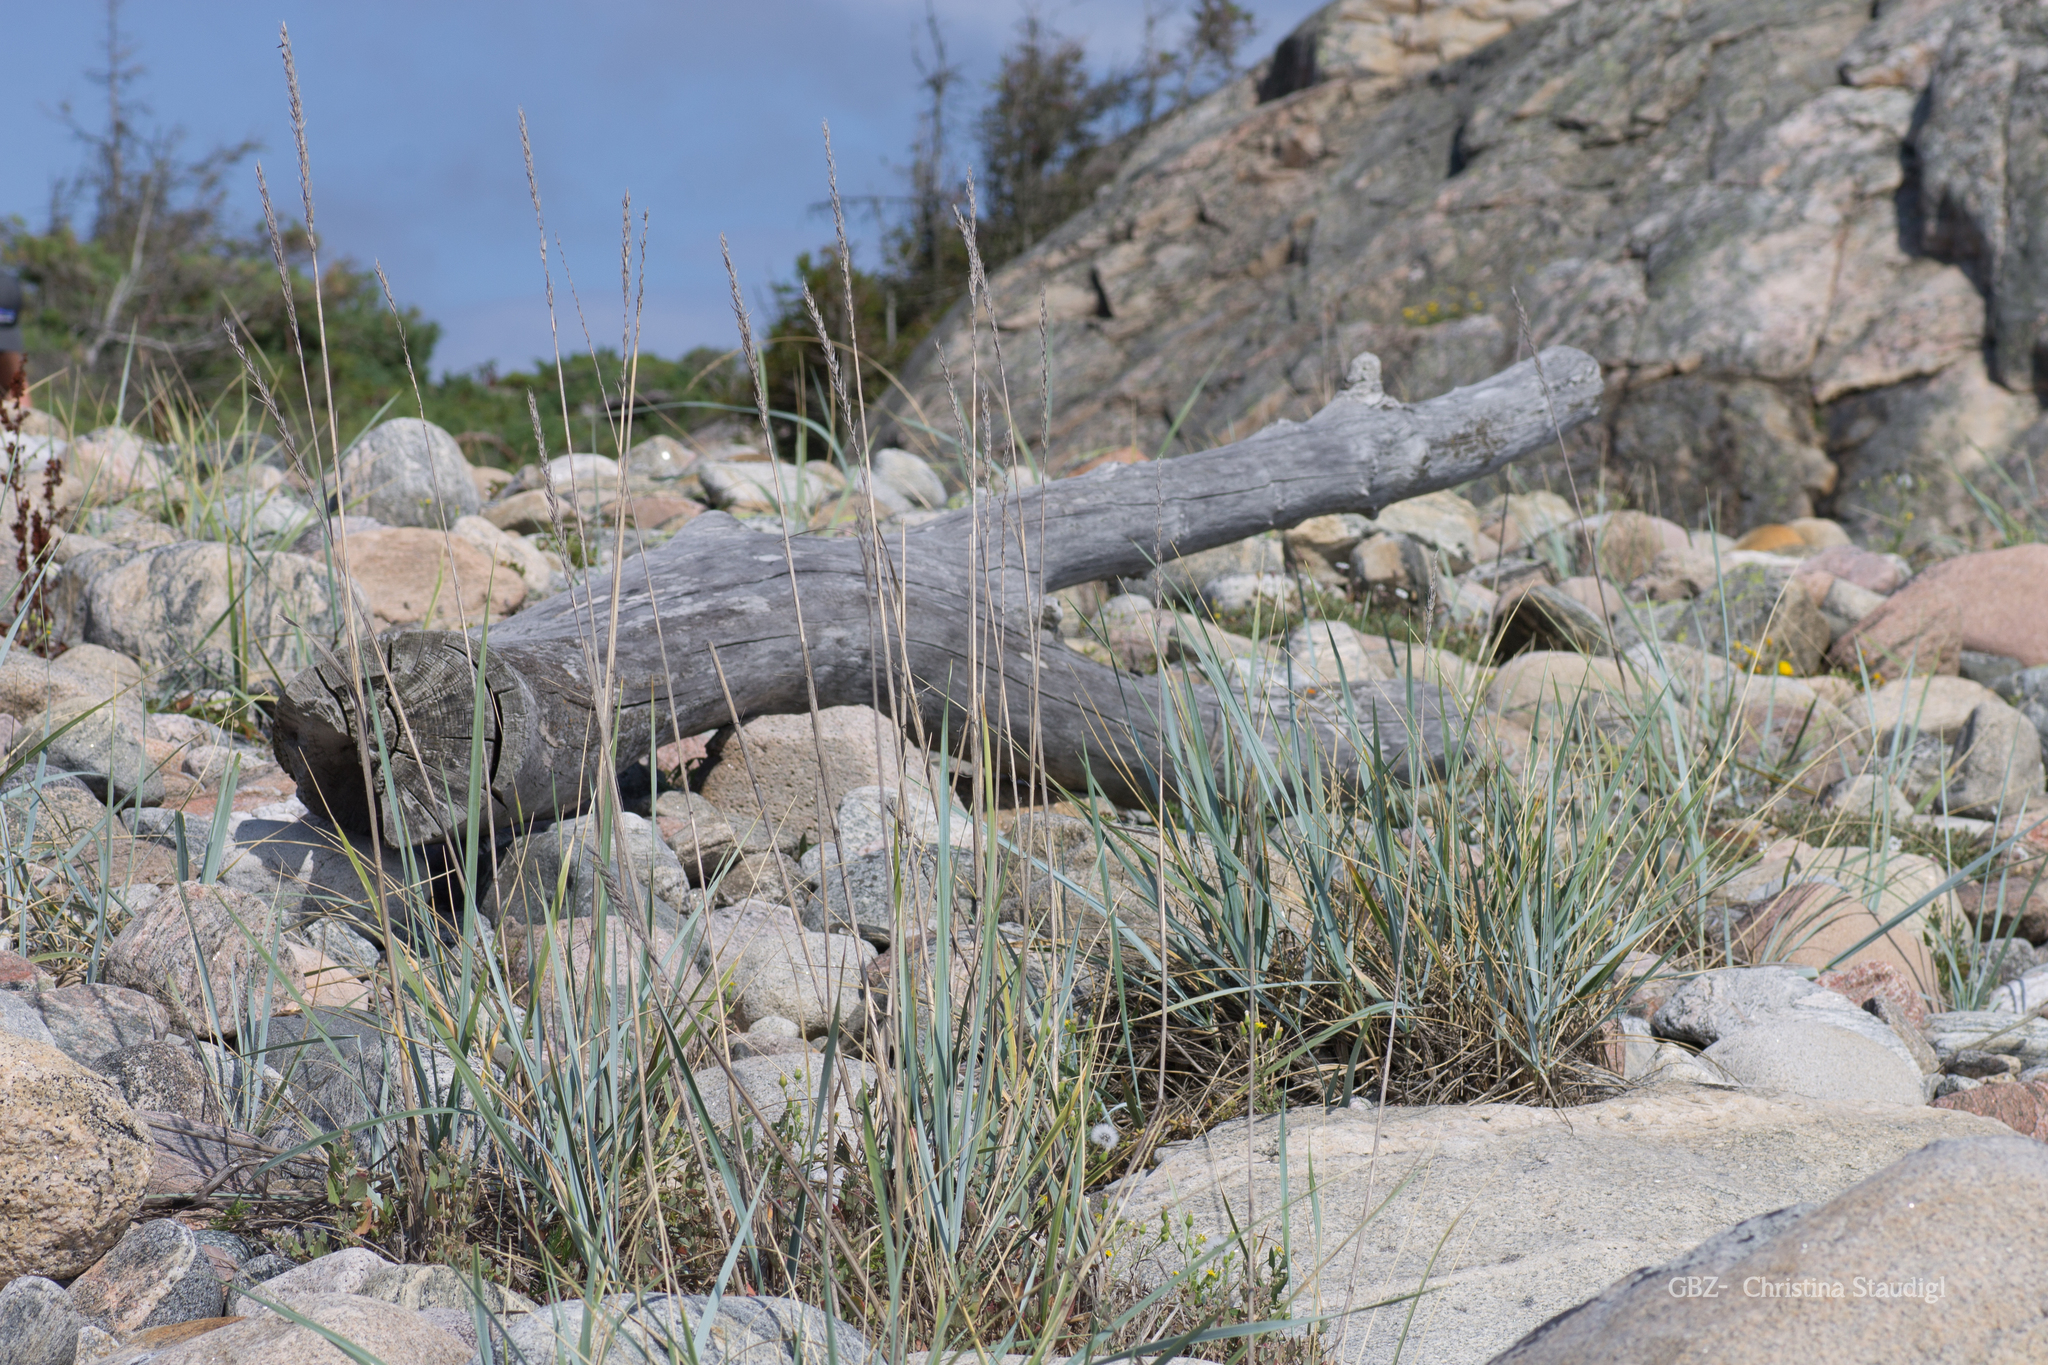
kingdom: Plantae
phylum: Tracheophyta
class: Liliopsida
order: Poales
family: Poaceae
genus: Leymus
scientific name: Leymus arenarius
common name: Lyme-grass
